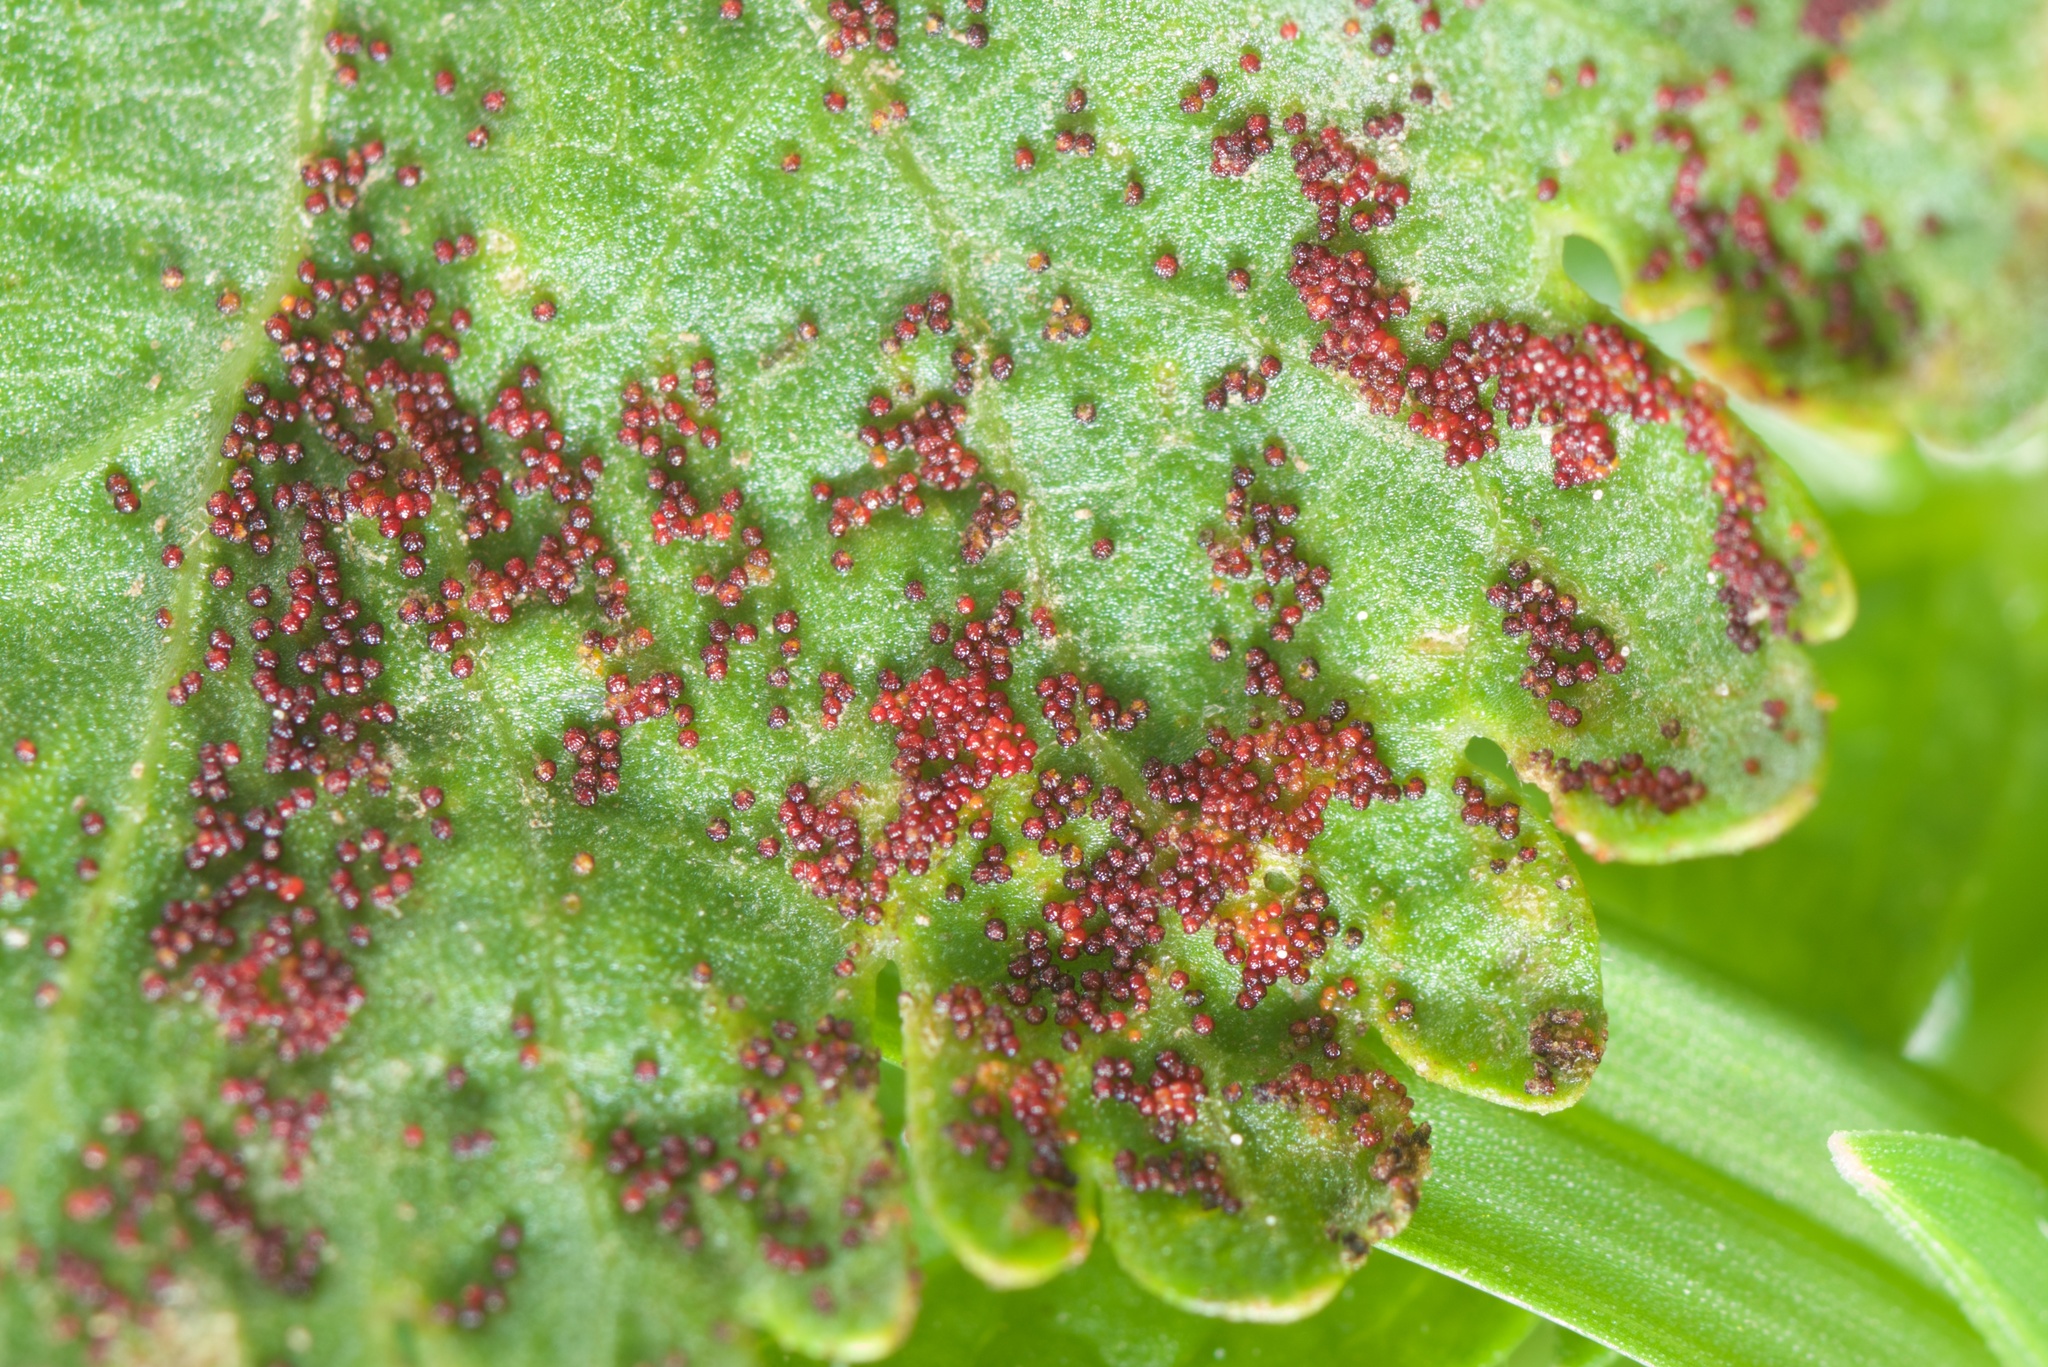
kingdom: Fungi
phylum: Chytridiomycota
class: Chytridiomycetes
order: Chytridiales
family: Synchytriaceae
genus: Synchytrium
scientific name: Synchytrium australe
